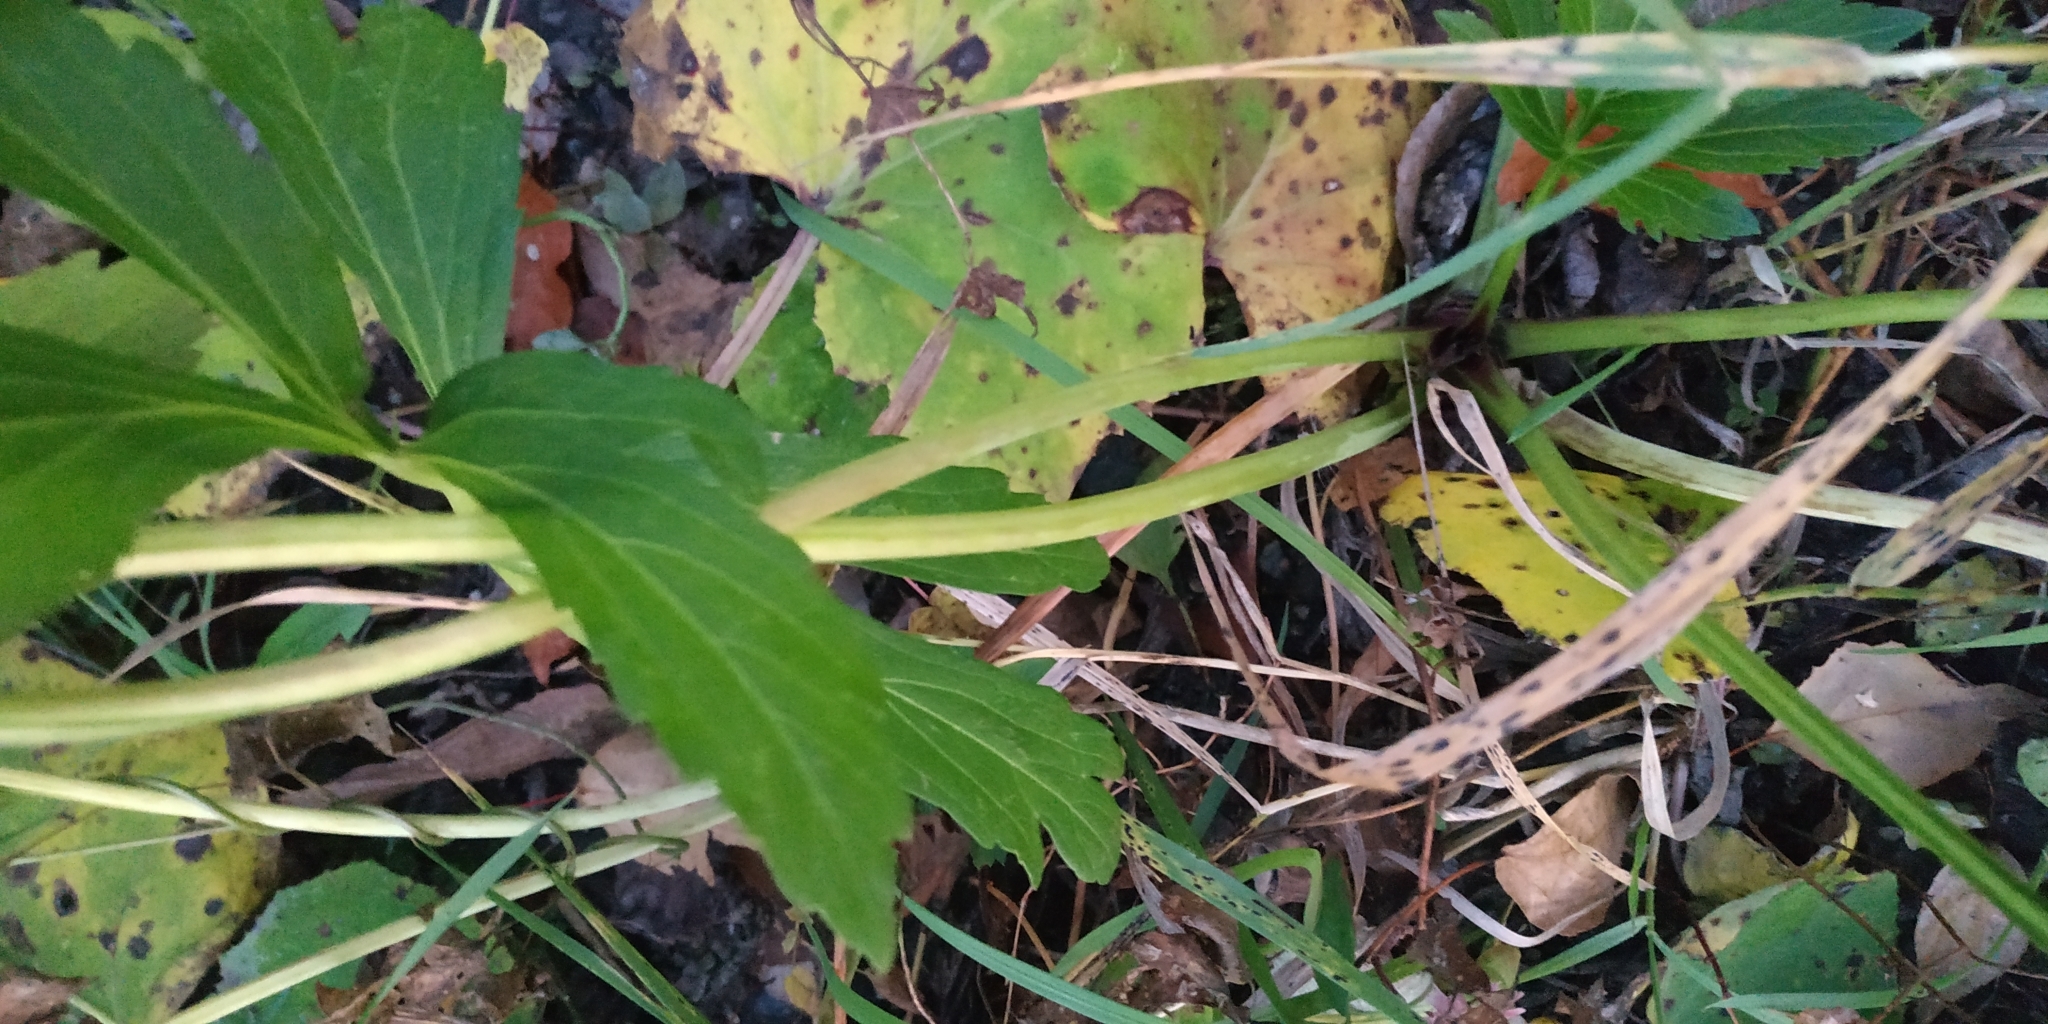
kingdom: Plantae
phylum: Tracheophyta
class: Magnoliopsida
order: Asterales
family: Asteraceae
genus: Rudbeckia
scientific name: Rudbeckia laciniata
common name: Coneflower
